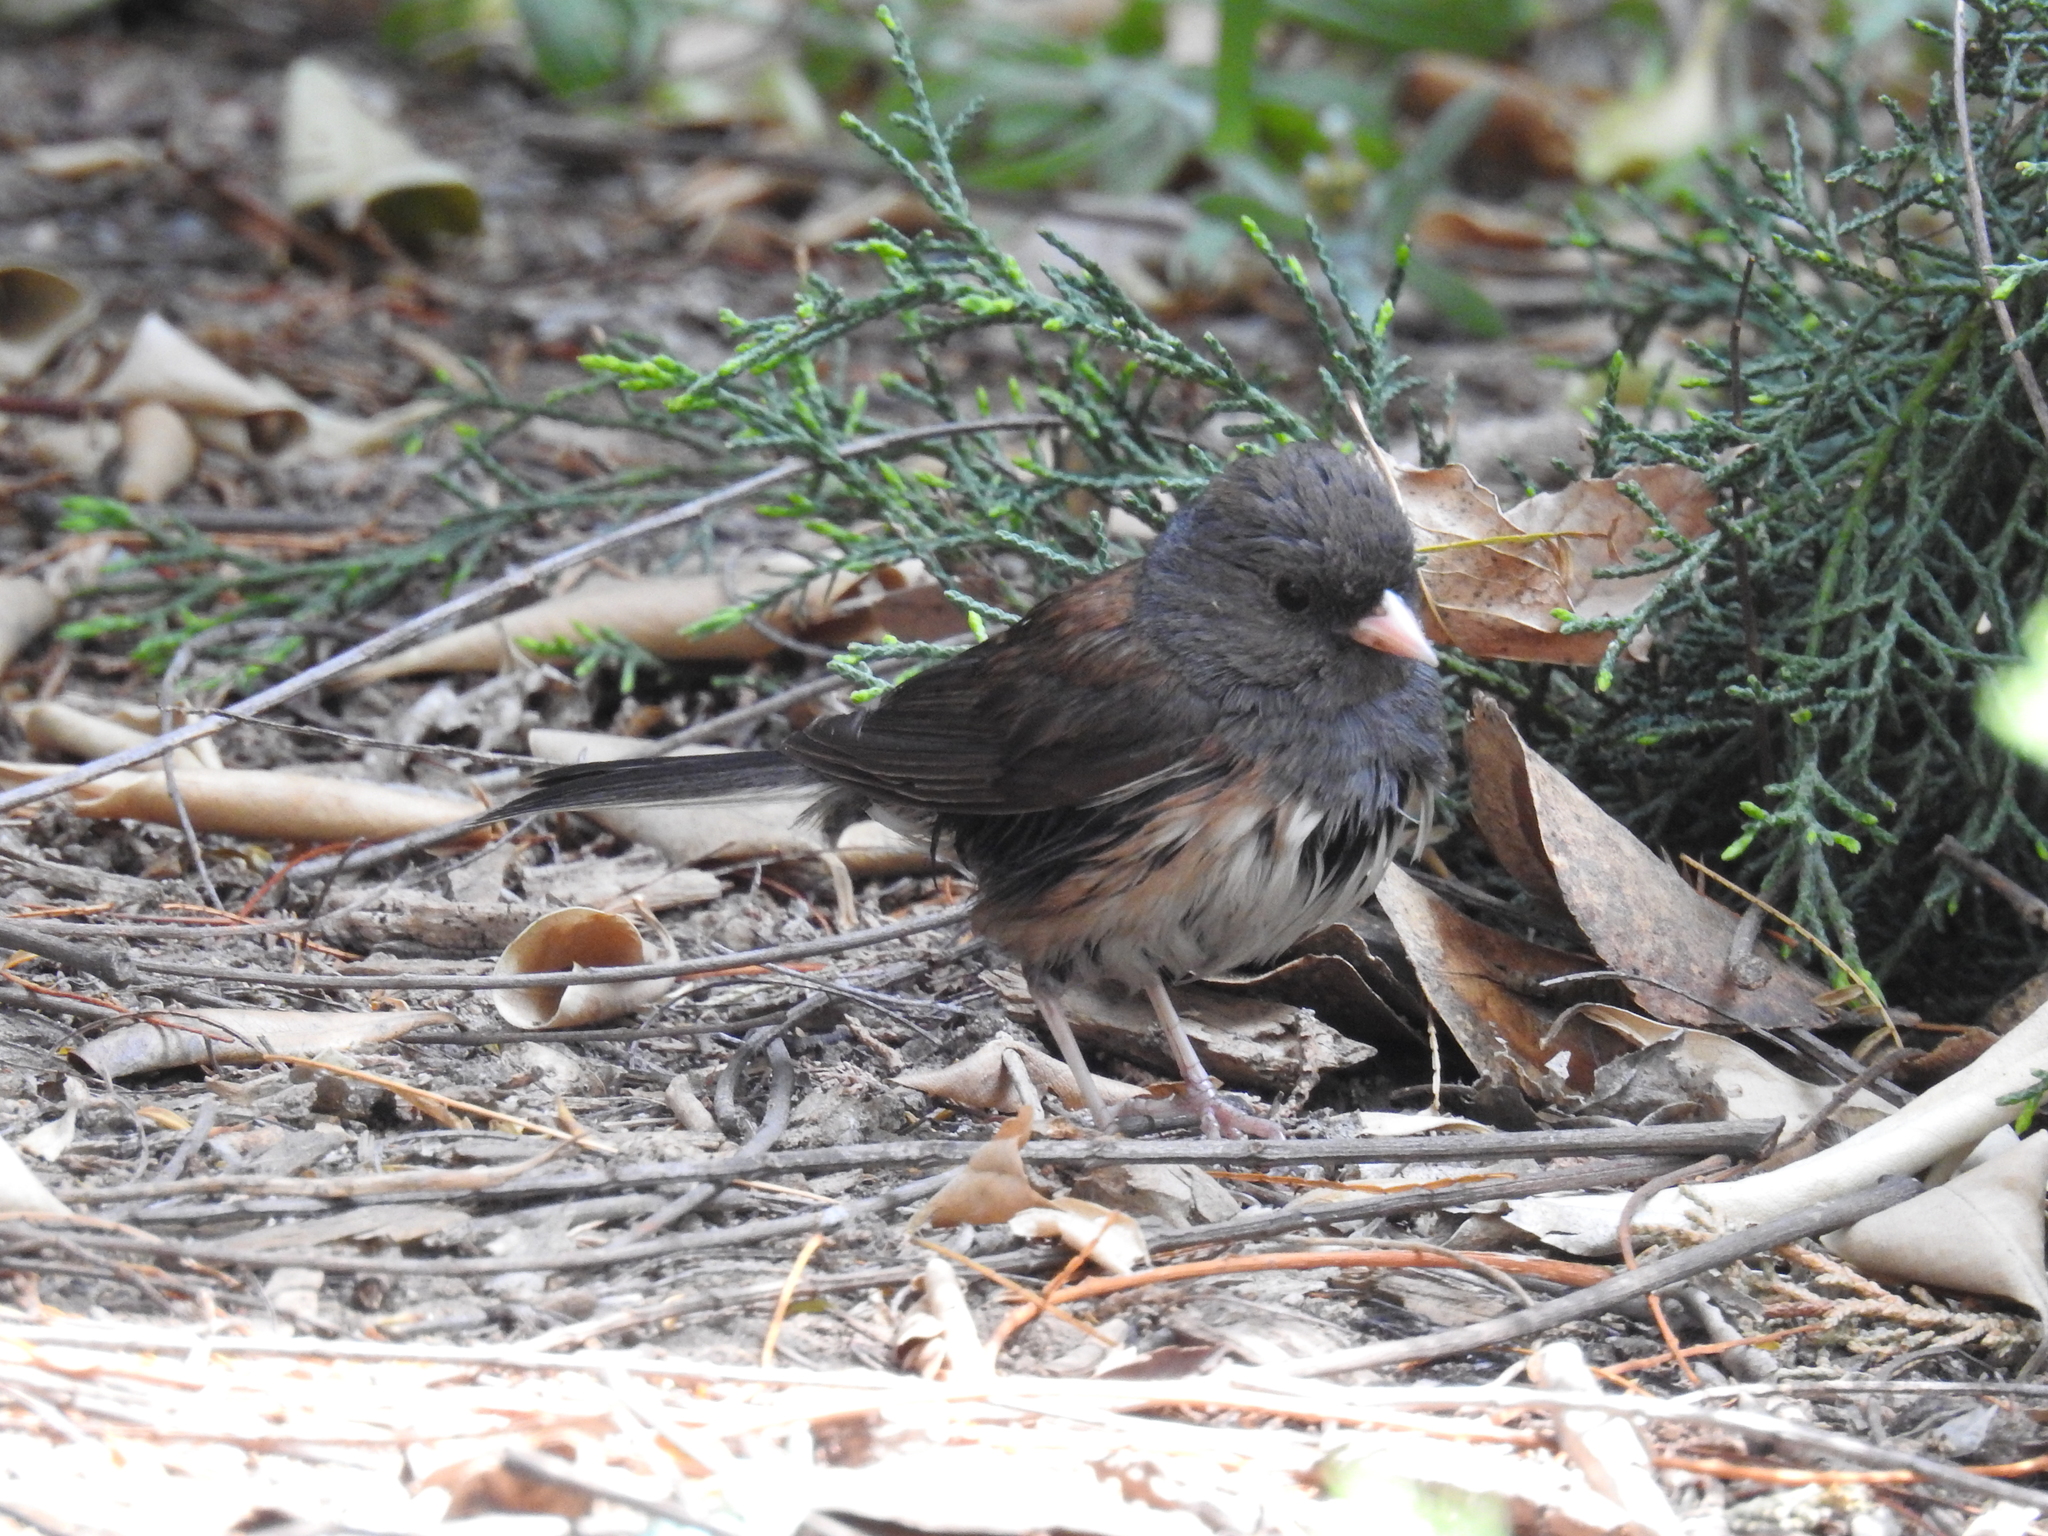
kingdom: Animalia
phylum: Chordata
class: Aves
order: Passeriformes
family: Passerellidae
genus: Junco
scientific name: Junco hyemalis
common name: Dark-eyed junco
